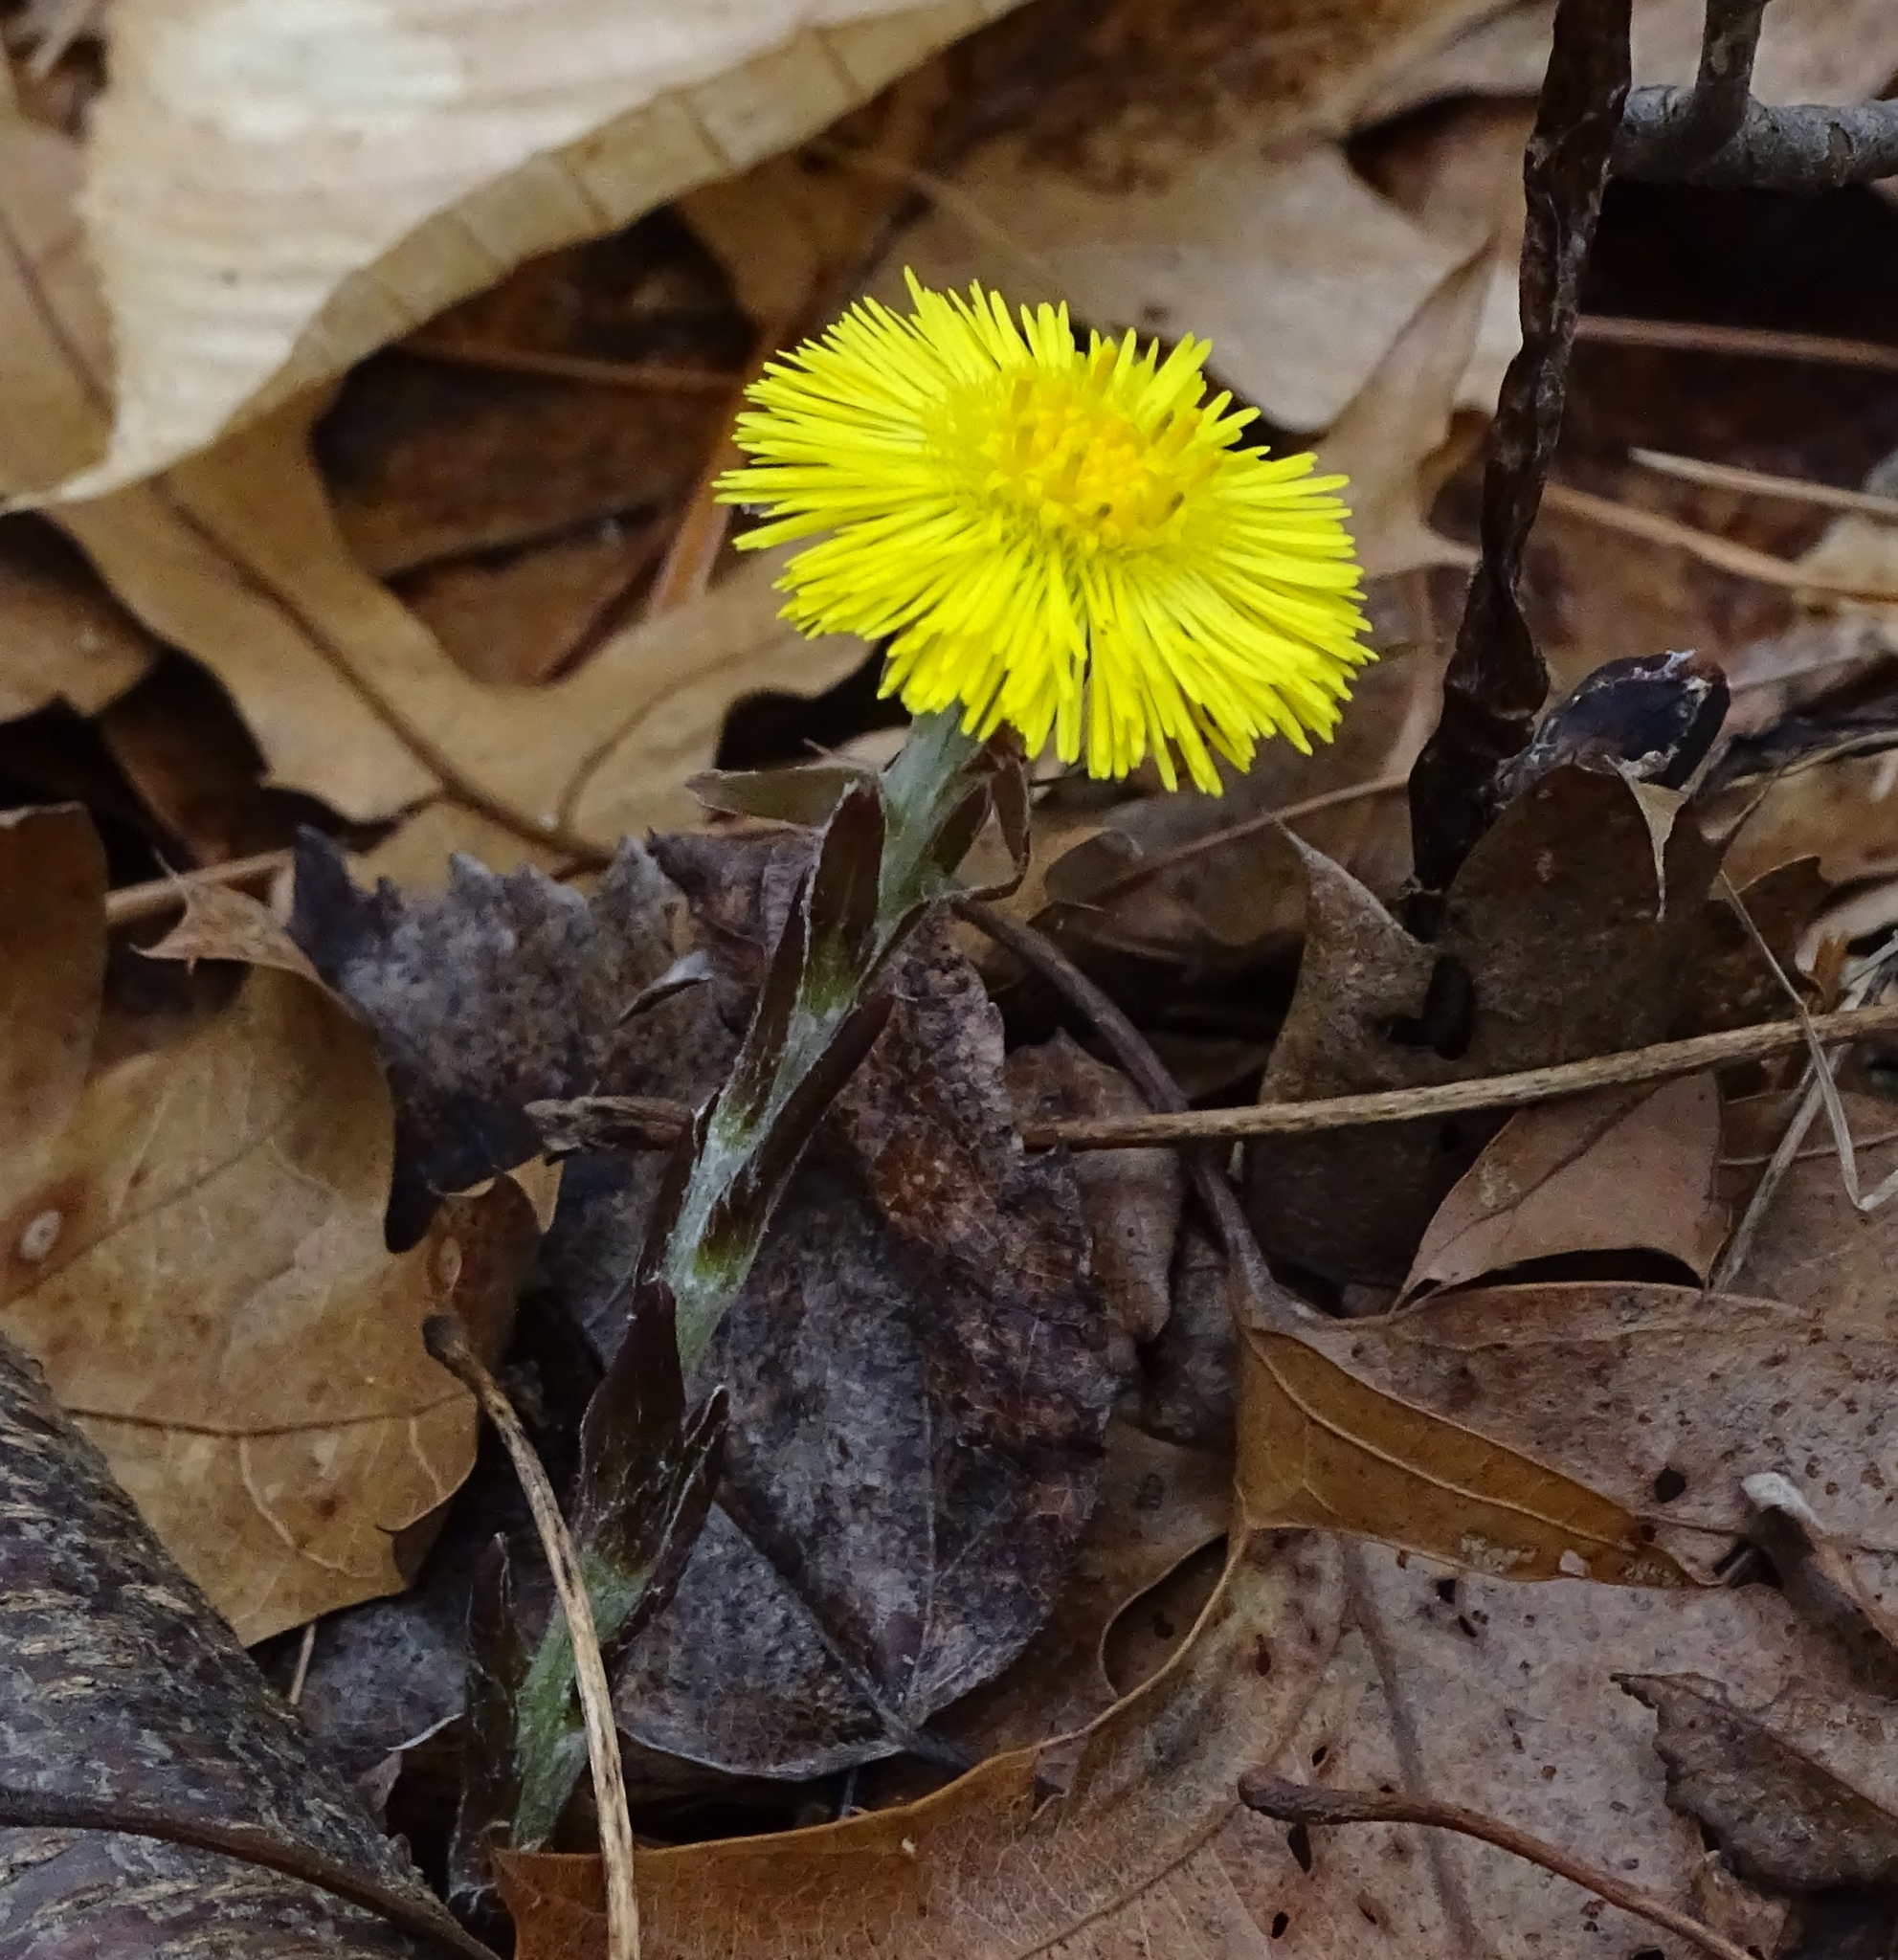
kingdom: Plantae
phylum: Tracheophyta
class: Magnoliopsida
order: Asterales
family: Asteraceae
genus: Tussilago
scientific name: Tussilago farfara
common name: Coltsfoot
